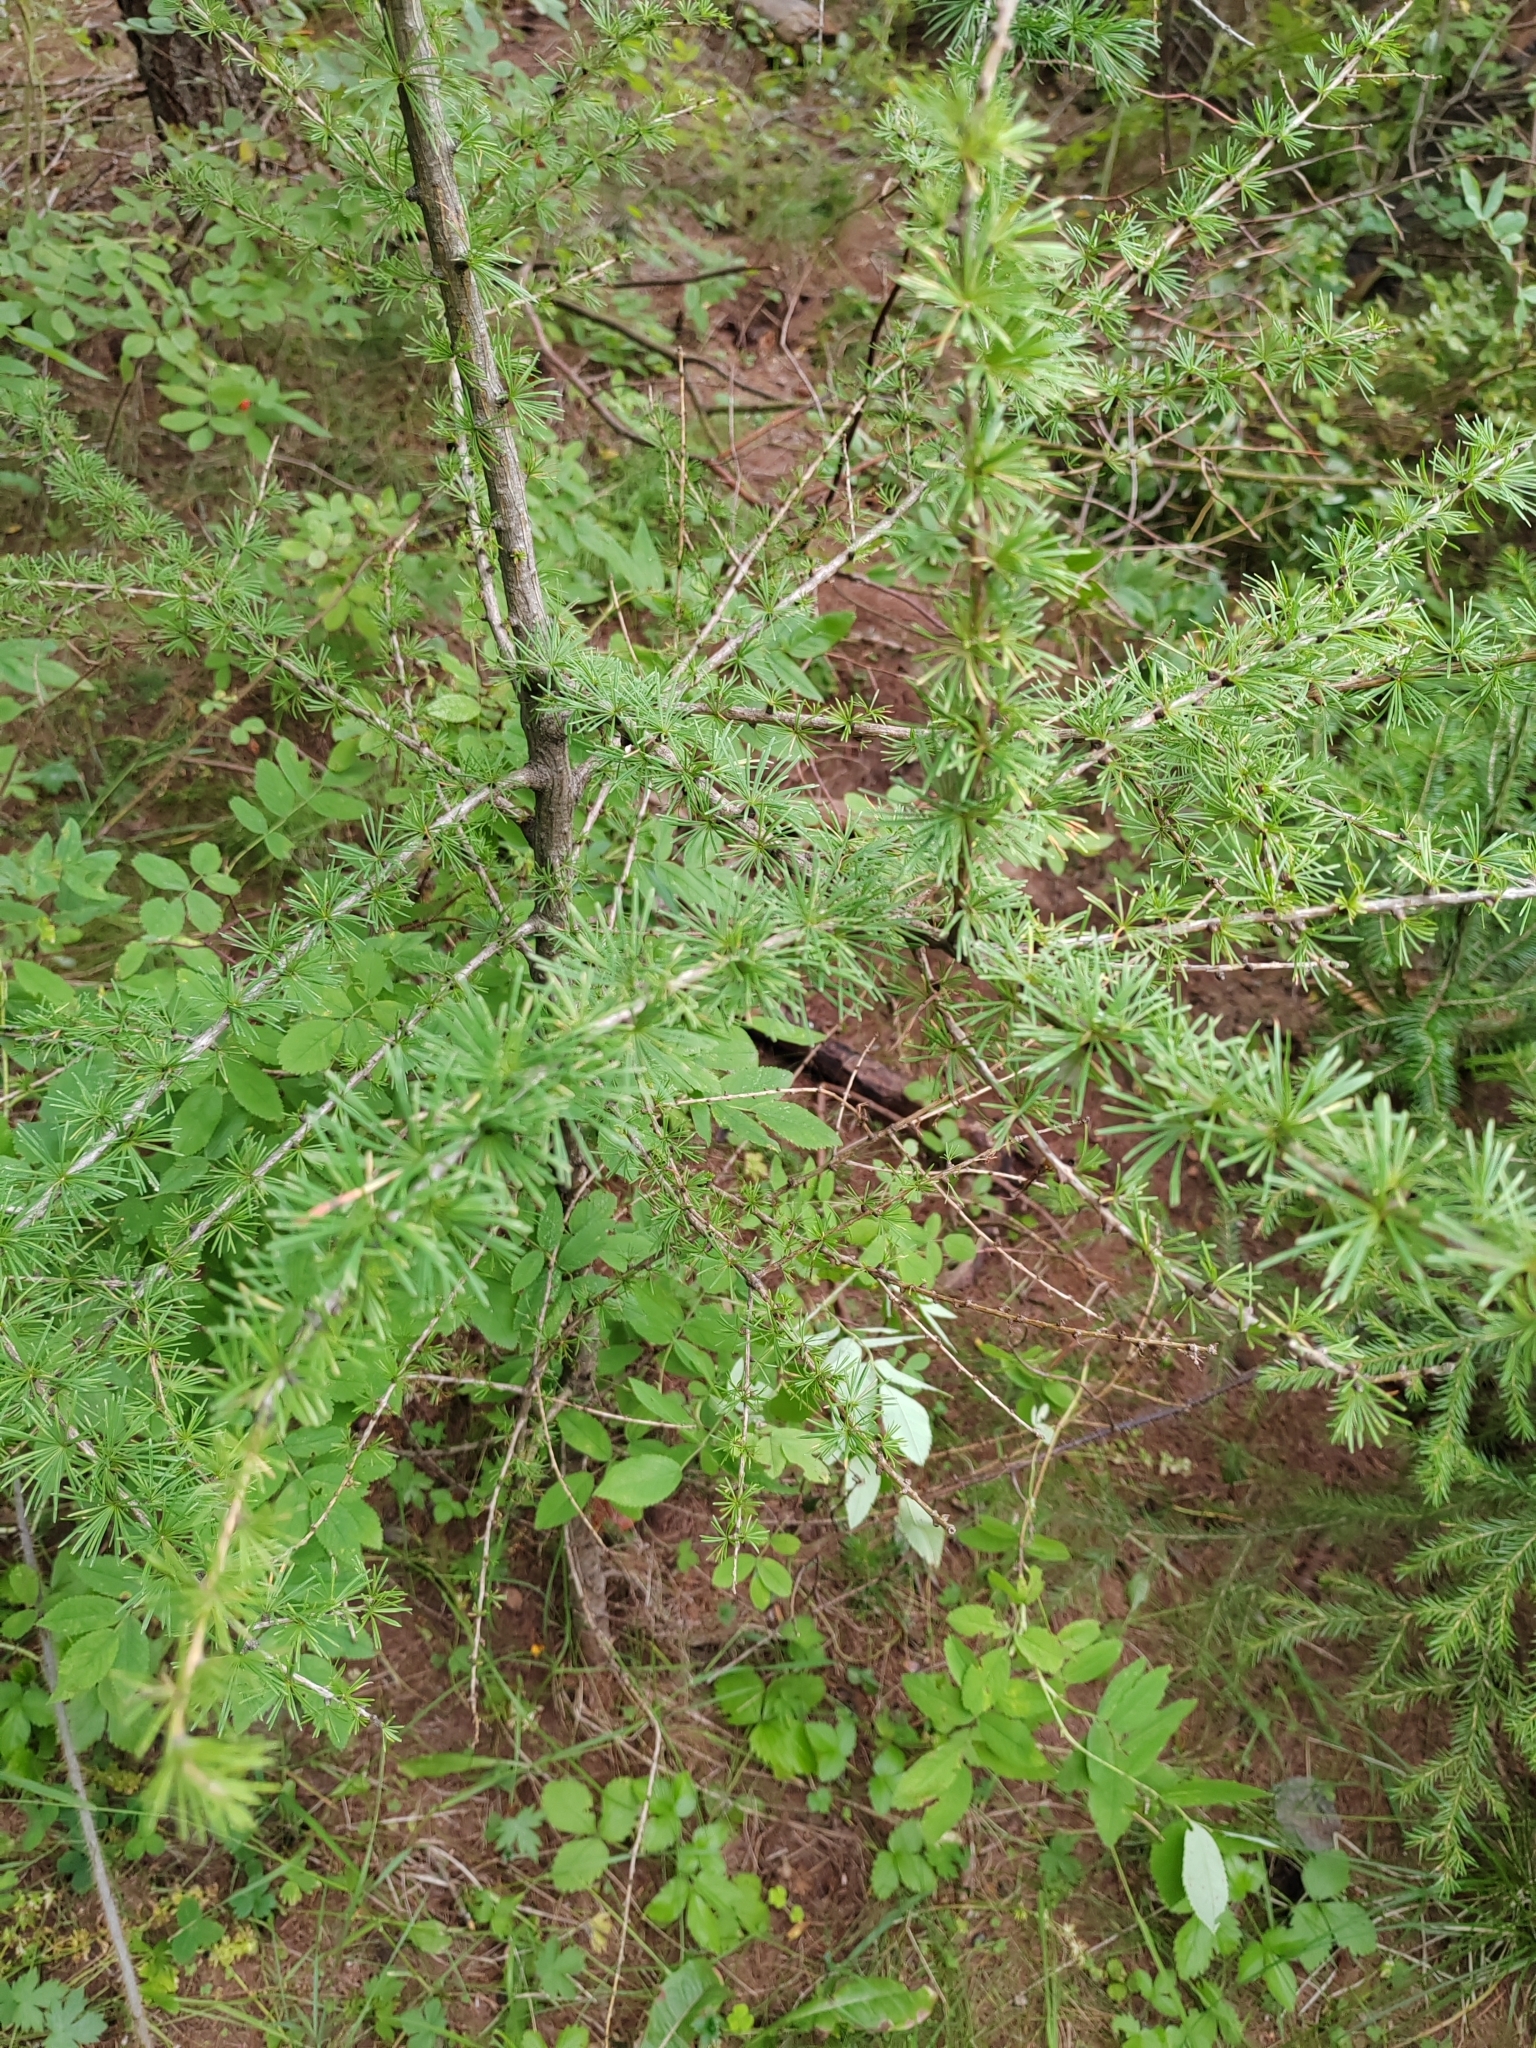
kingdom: Plantae
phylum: Tracheophyta
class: Pinopsida
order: Pinales
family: Pinaceae
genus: Larix
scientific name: Larix sibirica
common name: Siberian larch
